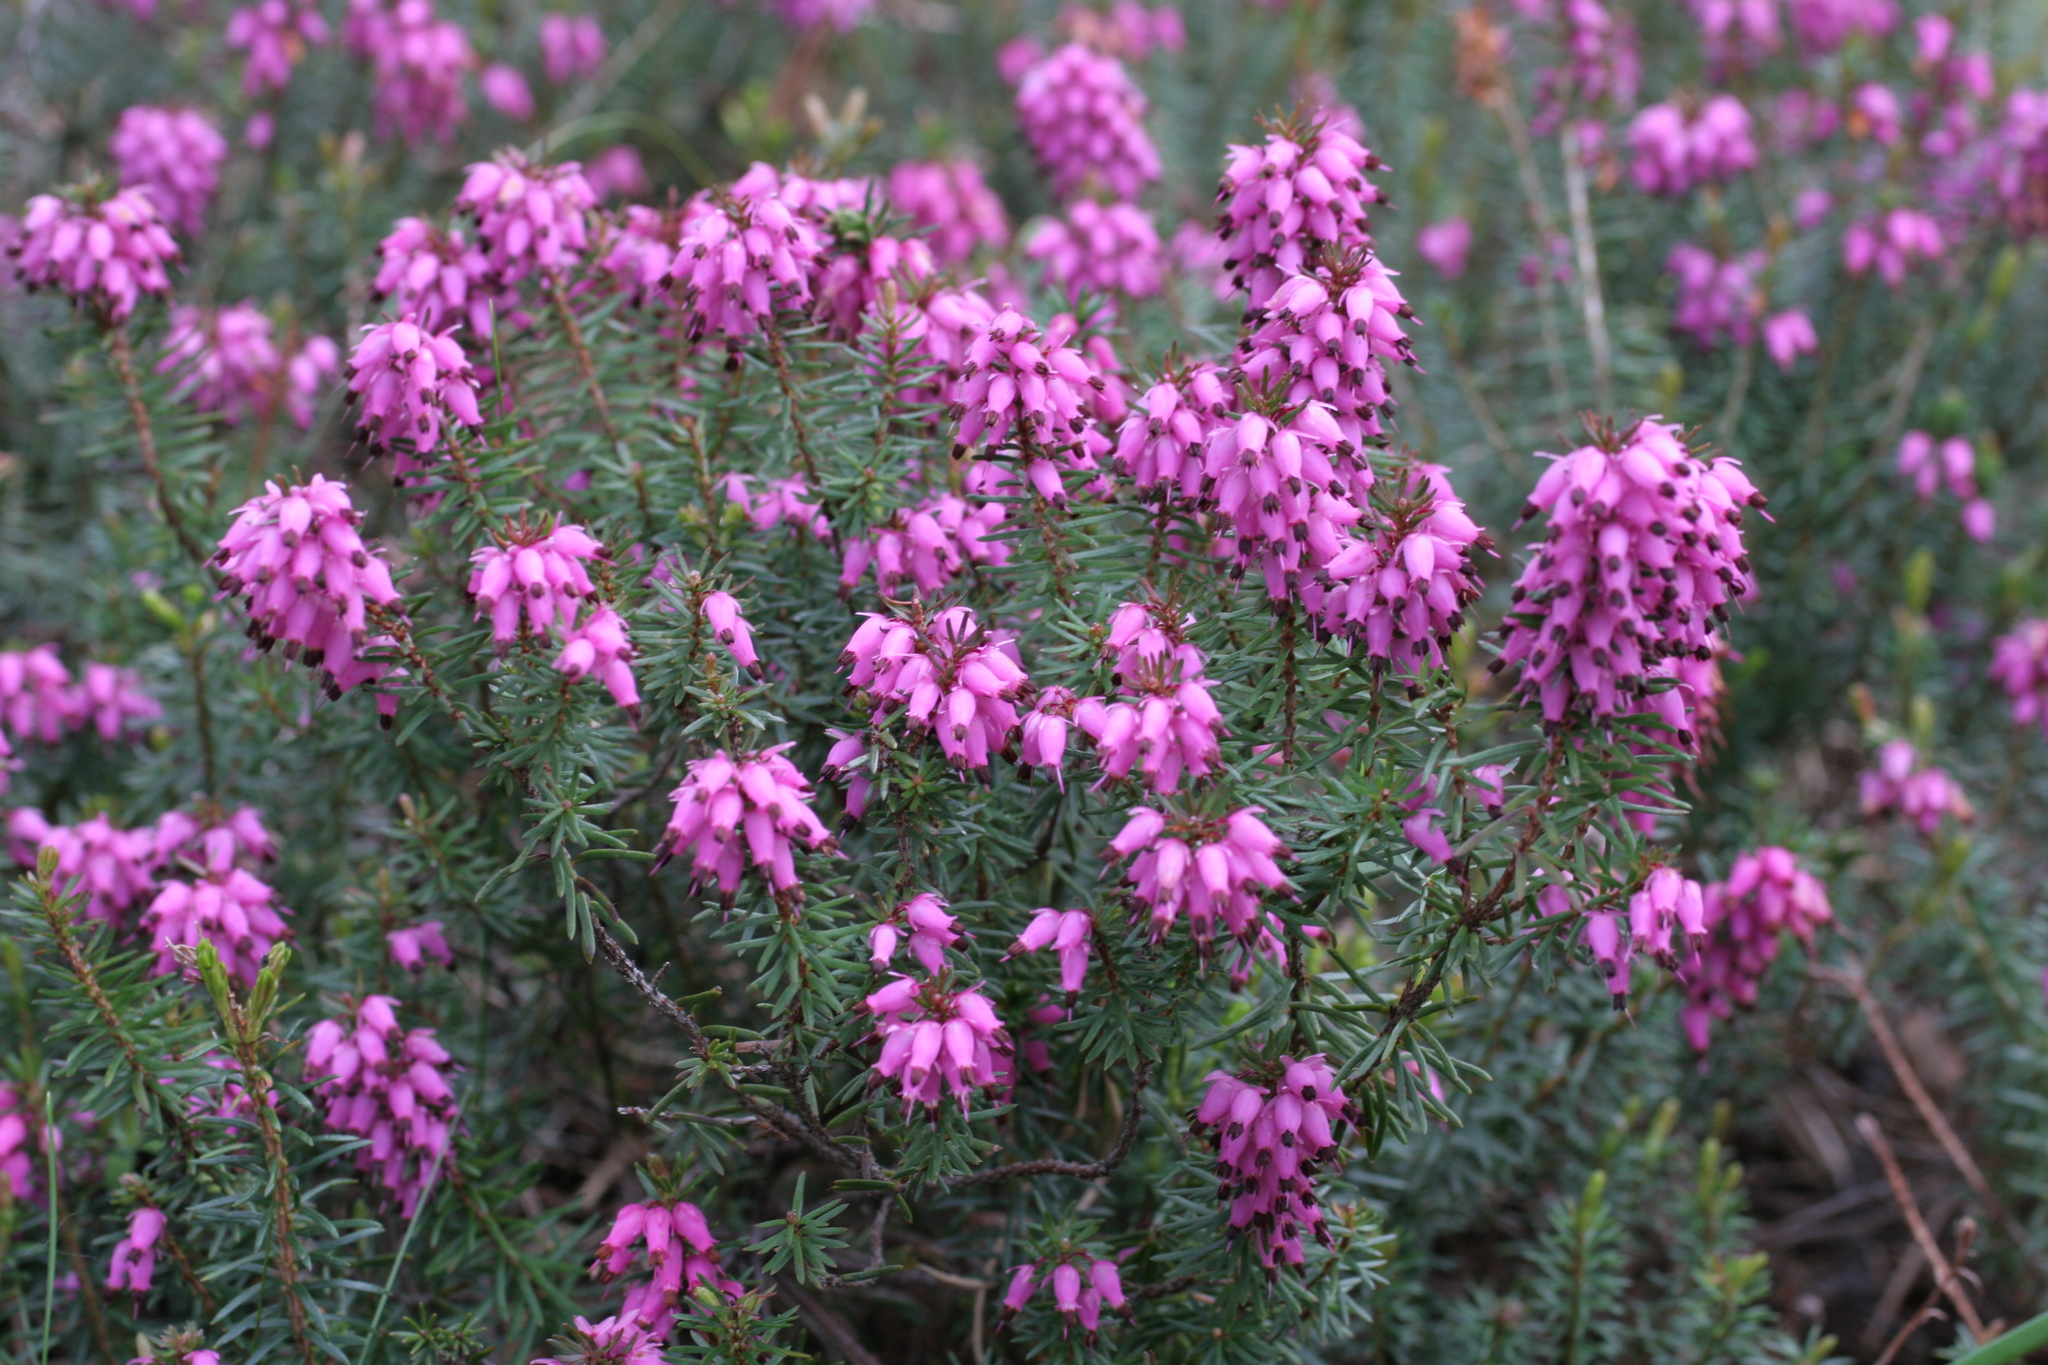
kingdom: Plantae
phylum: Tracheophyta
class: Magnoliopsida
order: Ericales
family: Ericaceae
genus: Erica
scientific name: Erica carnea
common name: Winter heath
